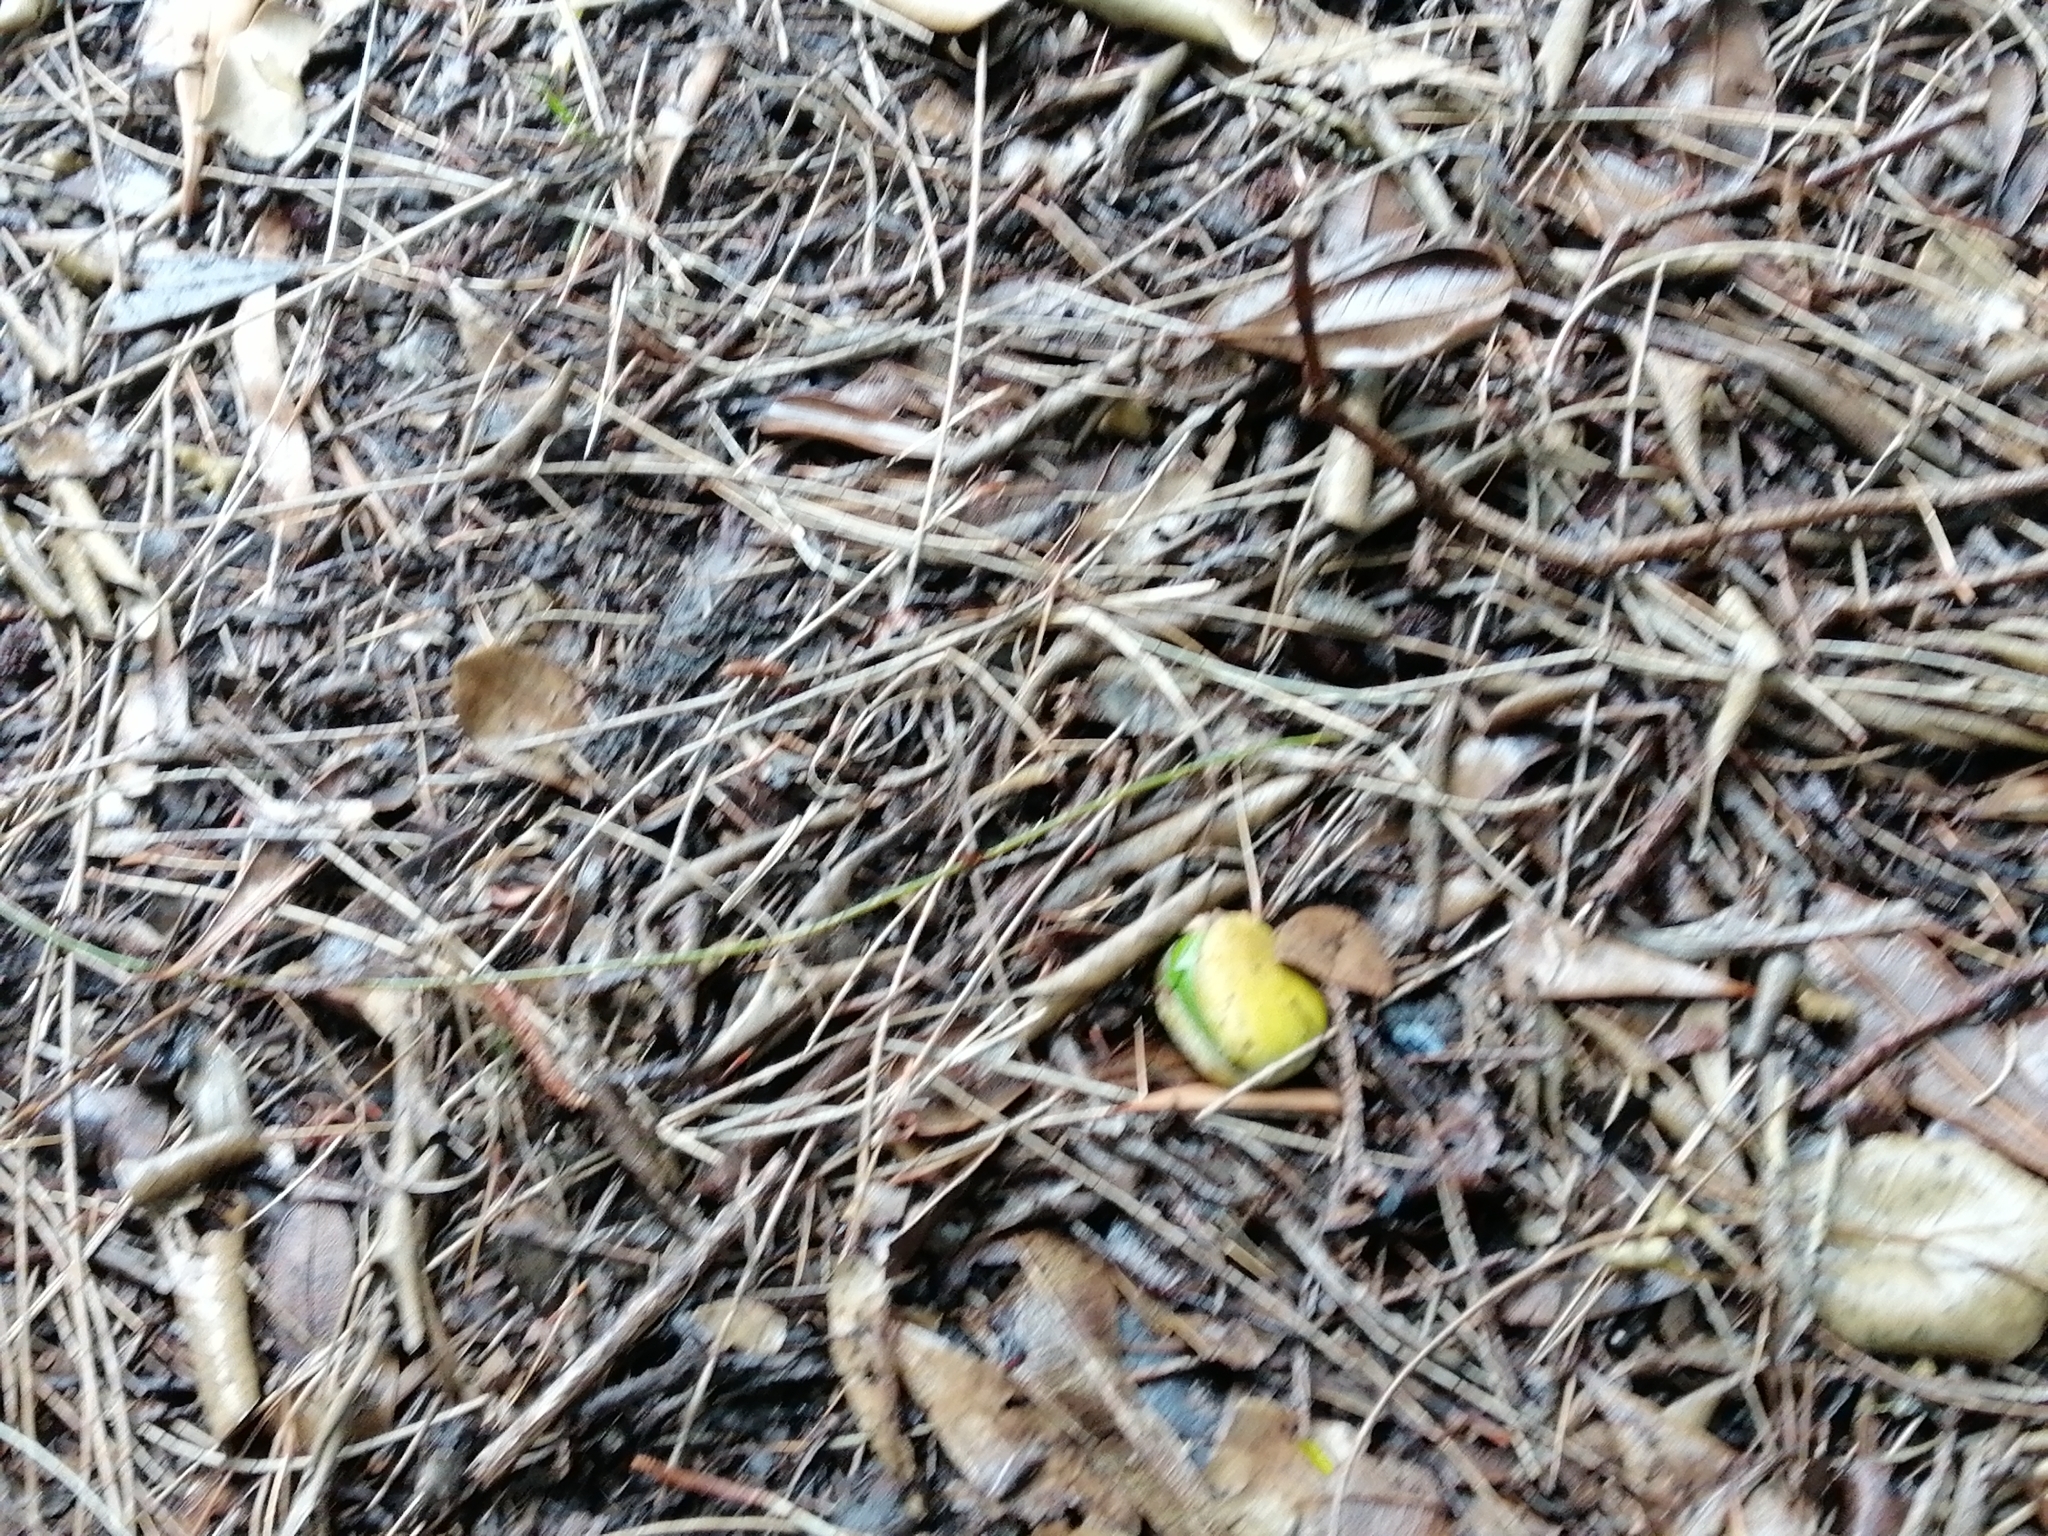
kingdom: Plantae
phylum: Tracheophyta
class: Magnoliopsida
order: Lamiales
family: Acanthaceae
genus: Avicennia
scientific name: Avicennia marina
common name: Gray mangrove
